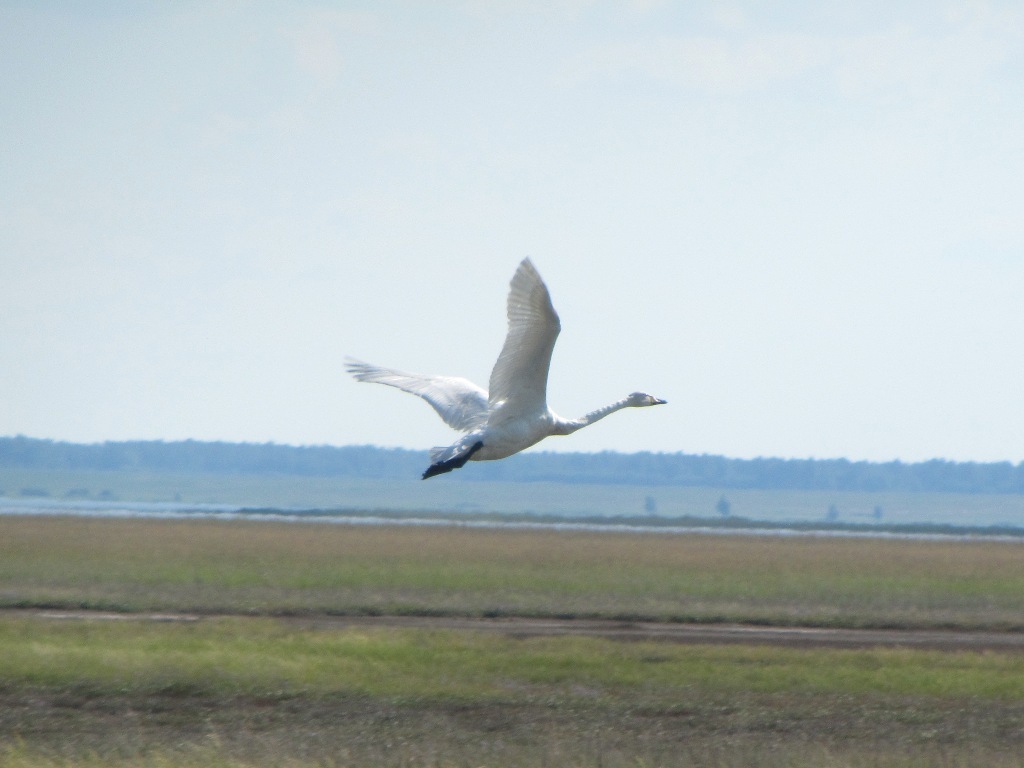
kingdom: Animalia
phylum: Chordata
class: Aves
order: Anseriformes
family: Anatidae
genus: Cygnus
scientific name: Cygnus cygnus
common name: Whooper swan
